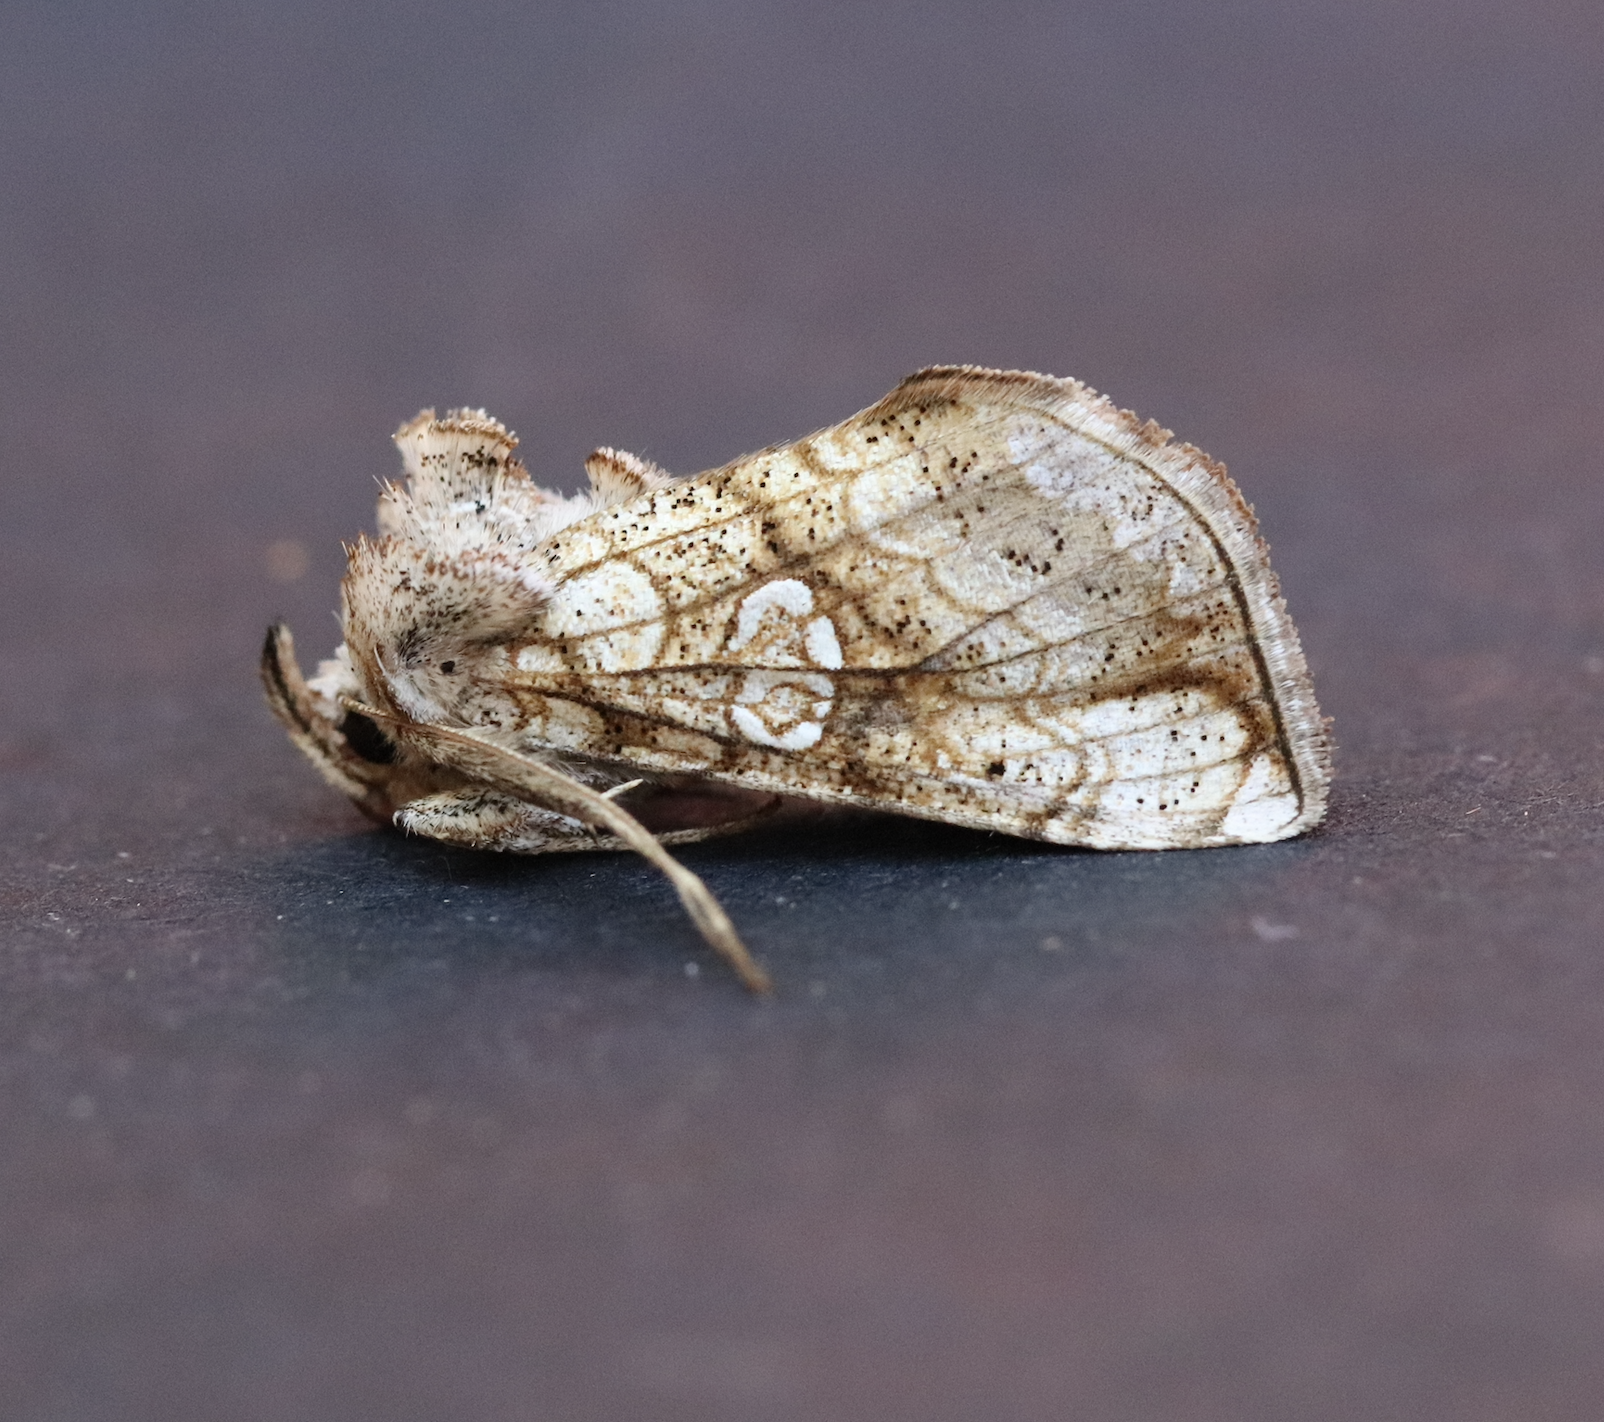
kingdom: Animalia
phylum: Arthropoda
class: Insecta
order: Lepidoptera
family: Noctuidae
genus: Polychrysia
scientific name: Polychrysia esmeralda
